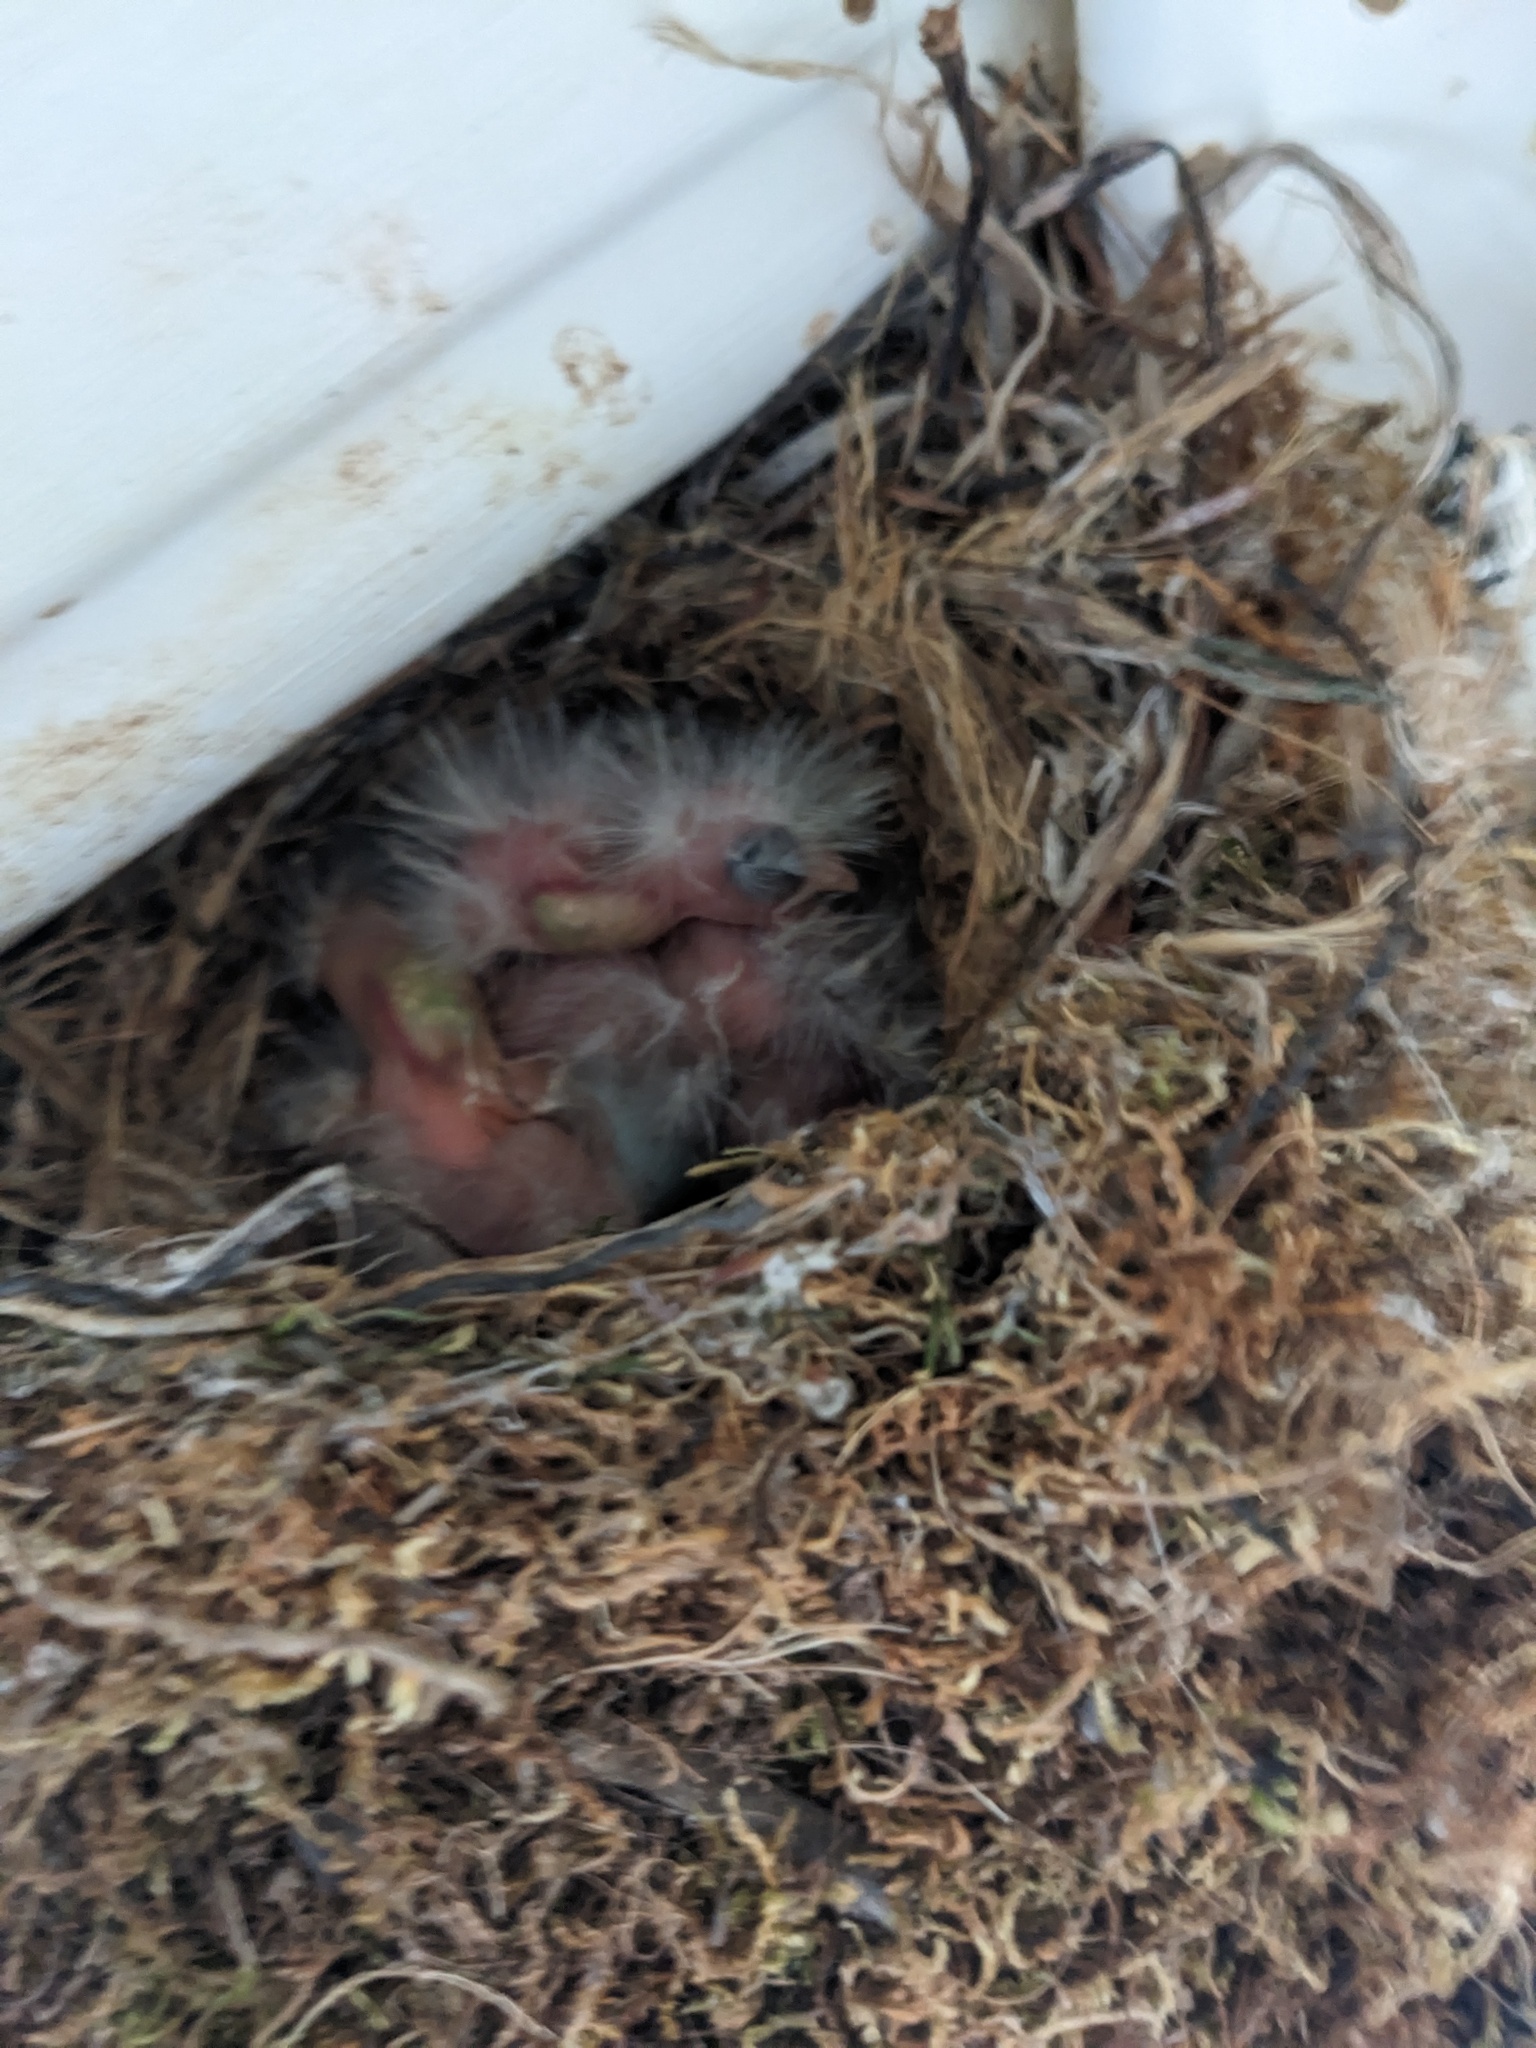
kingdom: Animalia
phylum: Chordata
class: Aves
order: Passeriformes
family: Fringillidae
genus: Haemorhous
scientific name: Haemorhous mexicanus
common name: House finch
